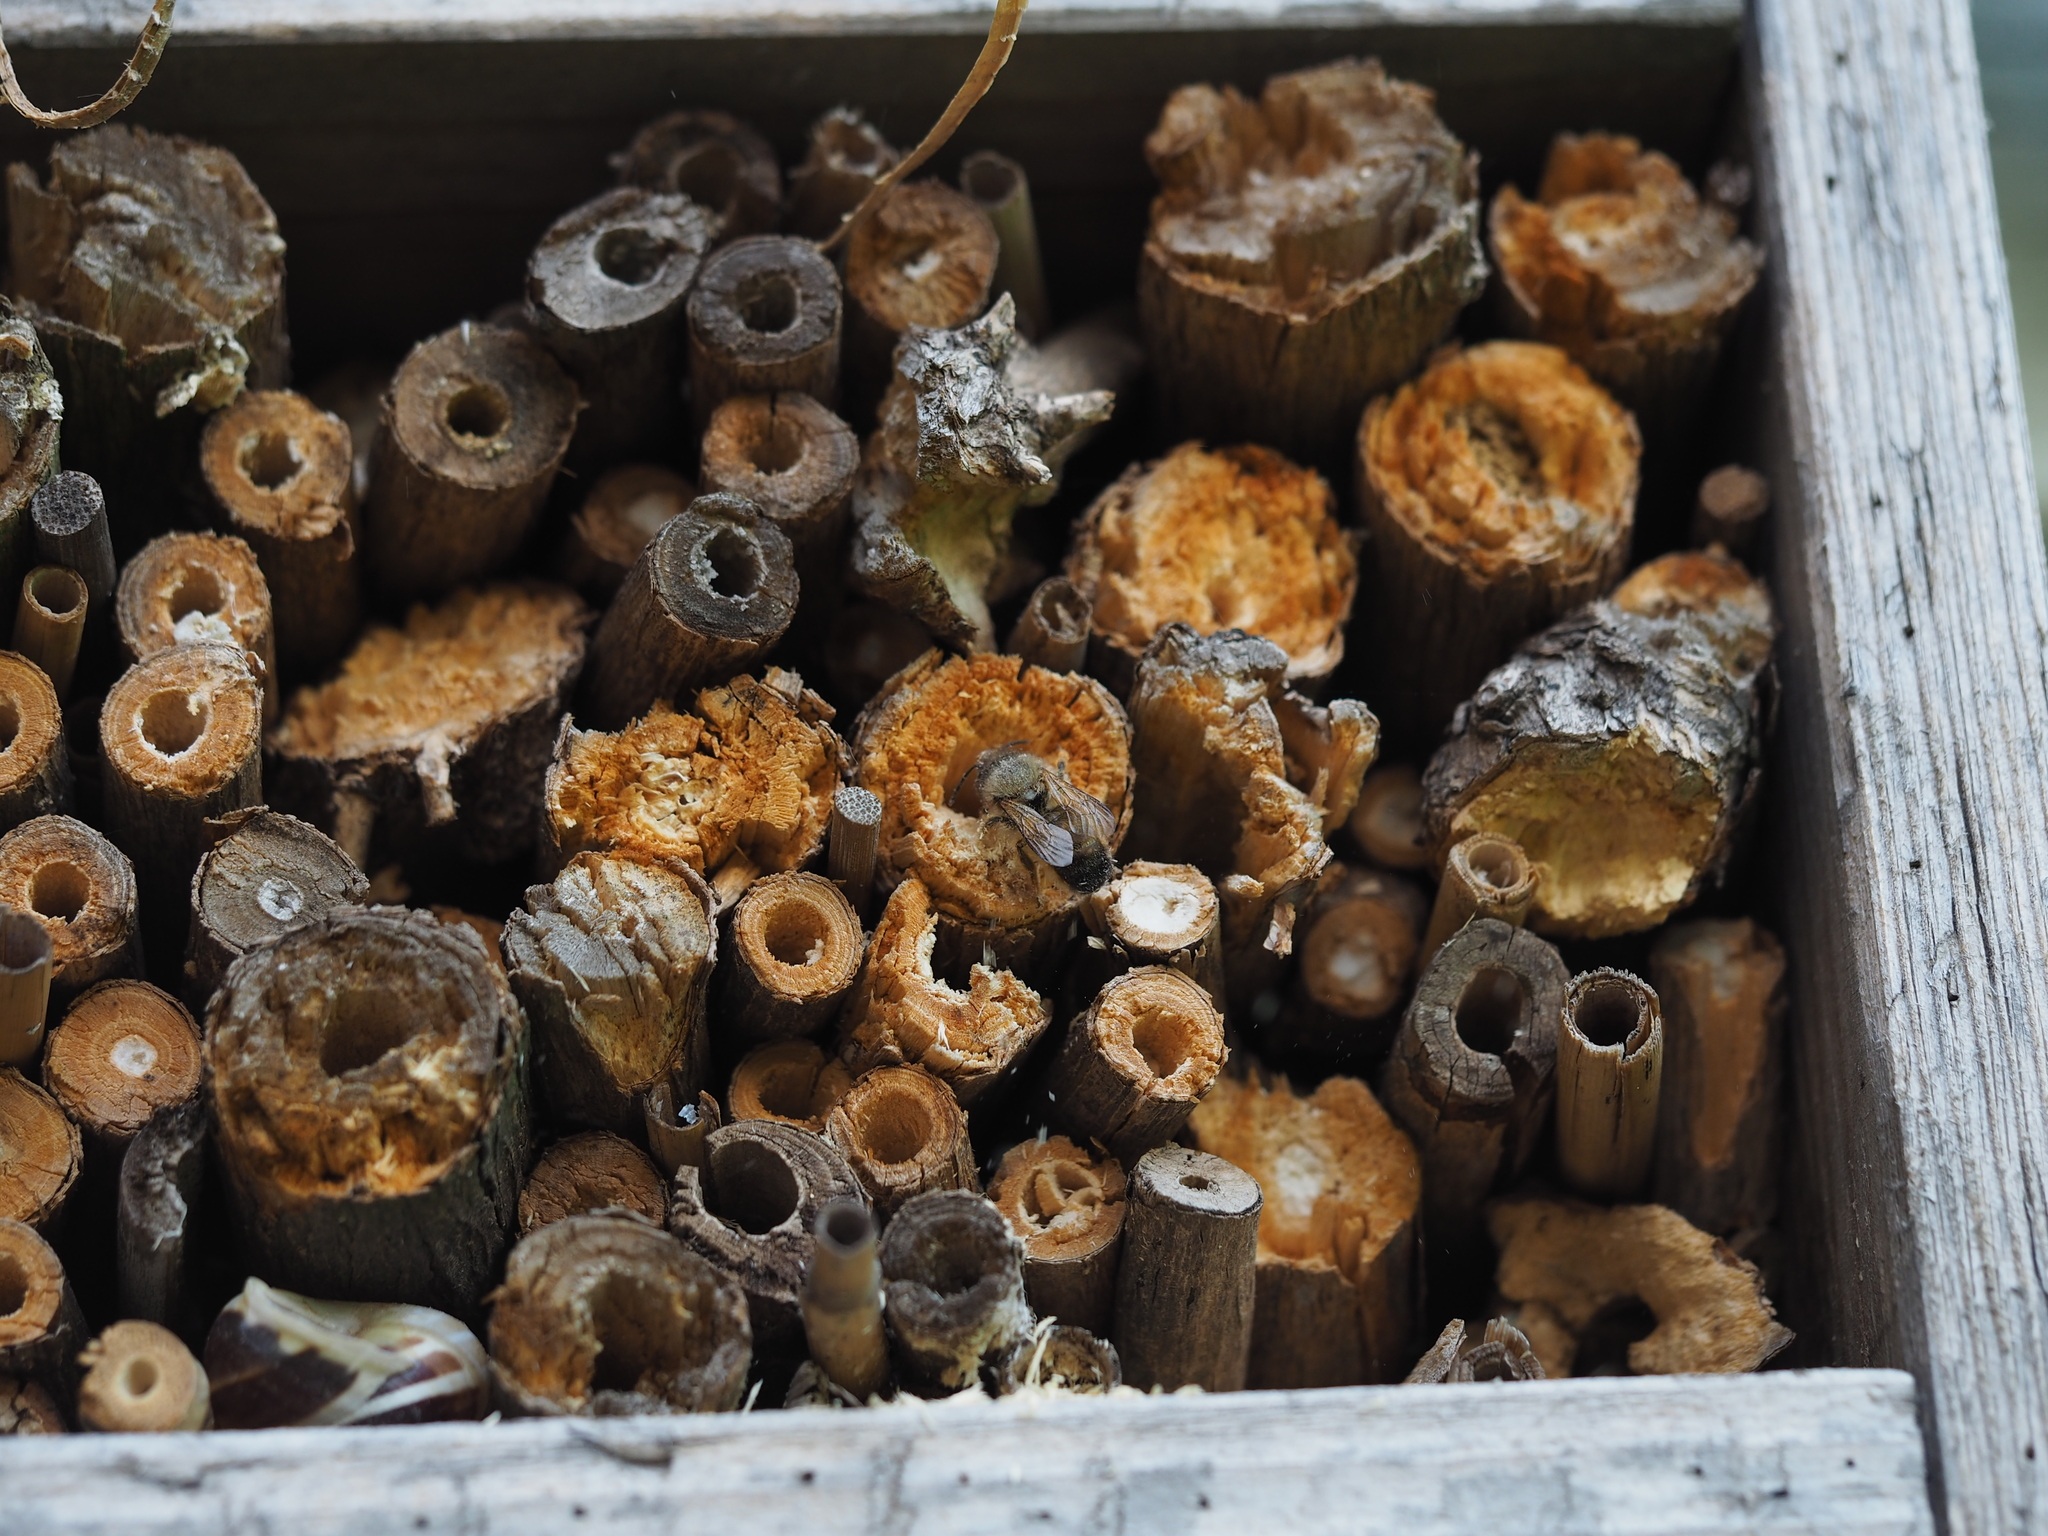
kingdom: Animalia
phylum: Arthropoda
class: Insecta
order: Hymenoptera
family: Megachilidae
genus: Osmia
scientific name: Osmia bicornis
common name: Red mason bee
